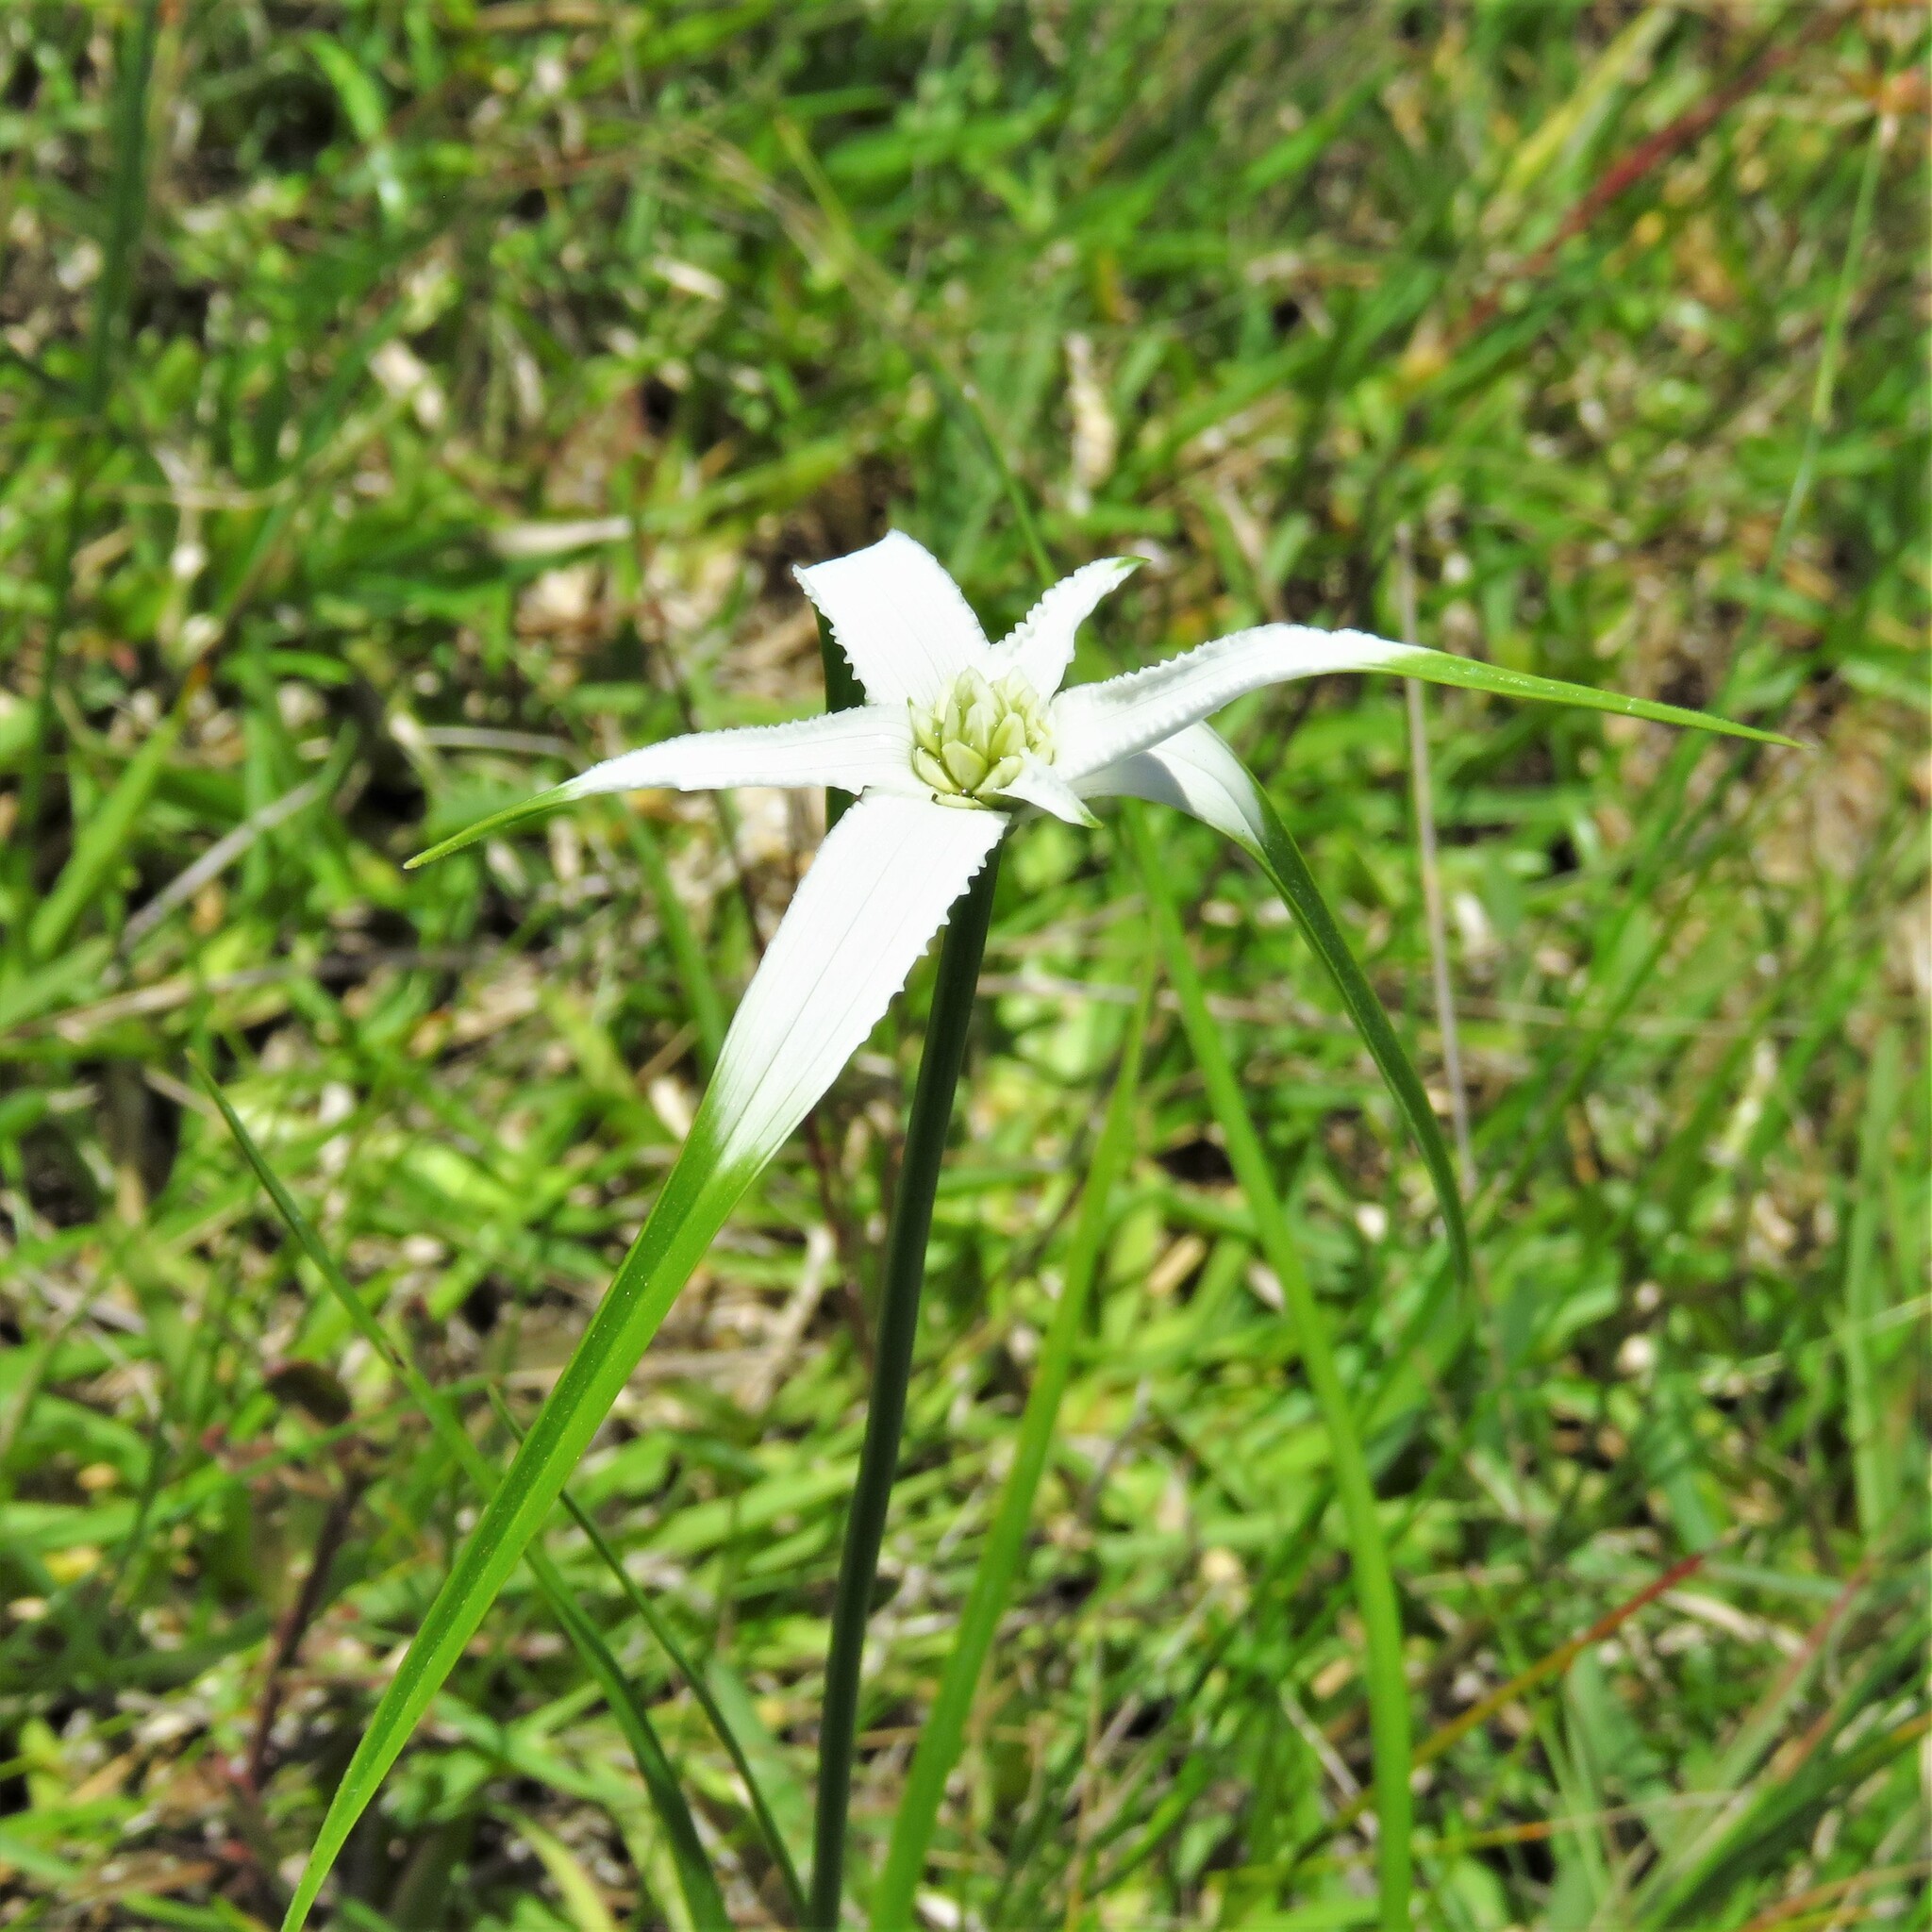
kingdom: Plantae
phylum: Tracheophyta
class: Liliopsida
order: Poales
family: Cyperaceae
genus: Rhynchospora
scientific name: Rhynchospora colorata
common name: Star sedge
